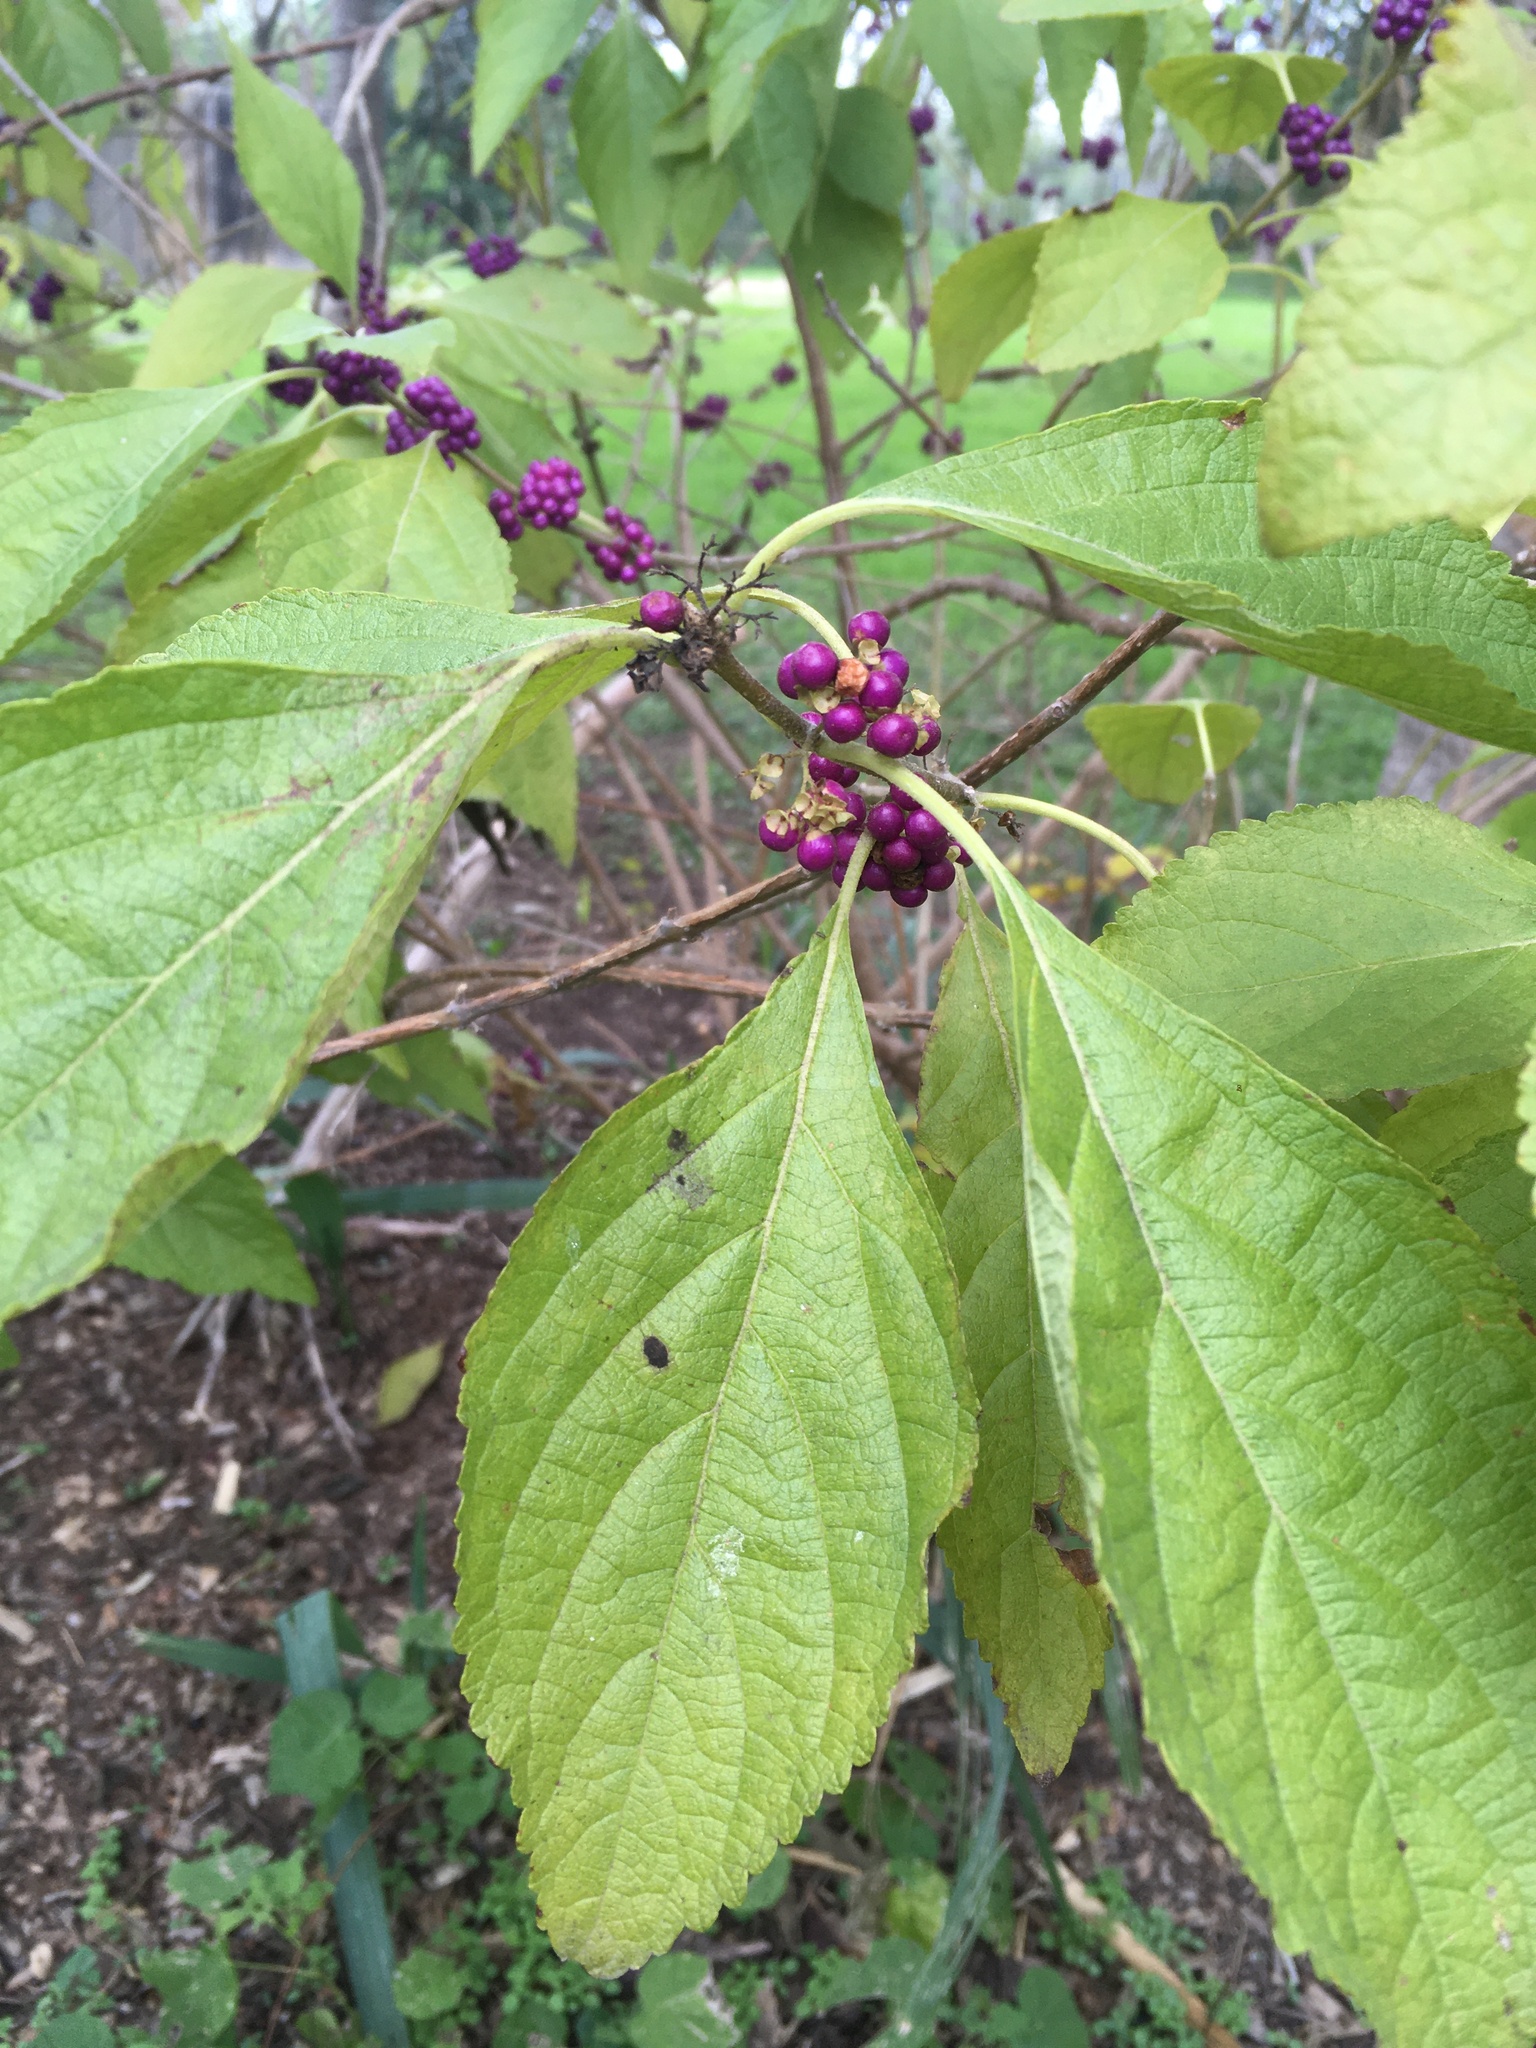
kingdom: Plantae
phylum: Tracheophyta
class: Magnoliopsida
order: Lamiales
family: Lamiaceae
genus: Callicarpa
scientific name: Callicarpa americana
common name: American beautyberry
